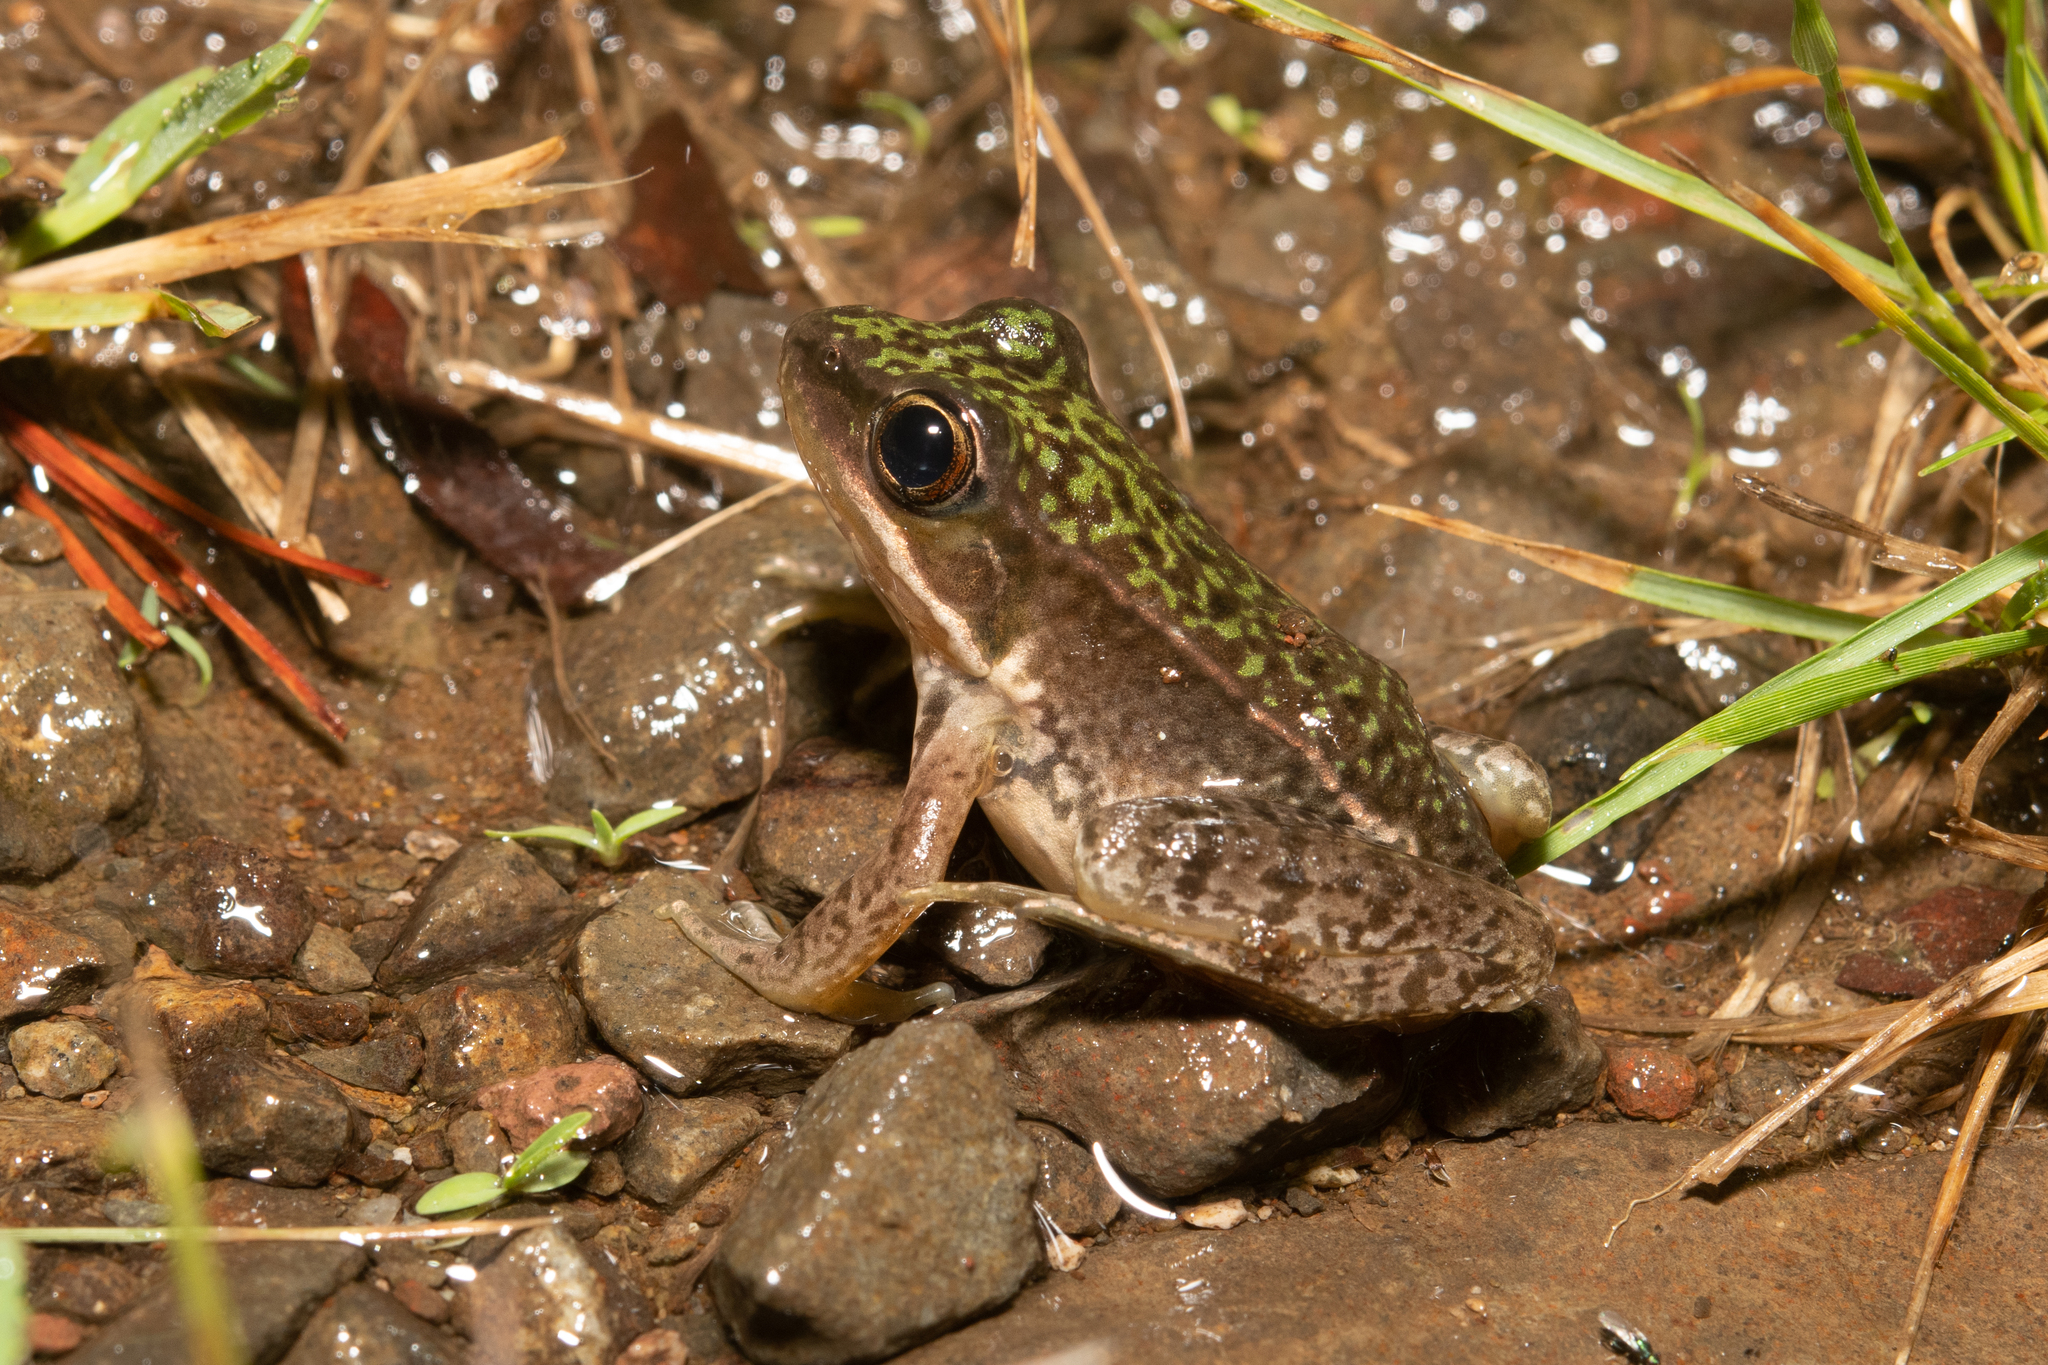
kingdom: Animalia
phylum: Chordata
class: Amphibia
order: Anura
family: Ranidae
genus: Lithobates
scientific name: Lithobates maculatus
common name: Highland frog
